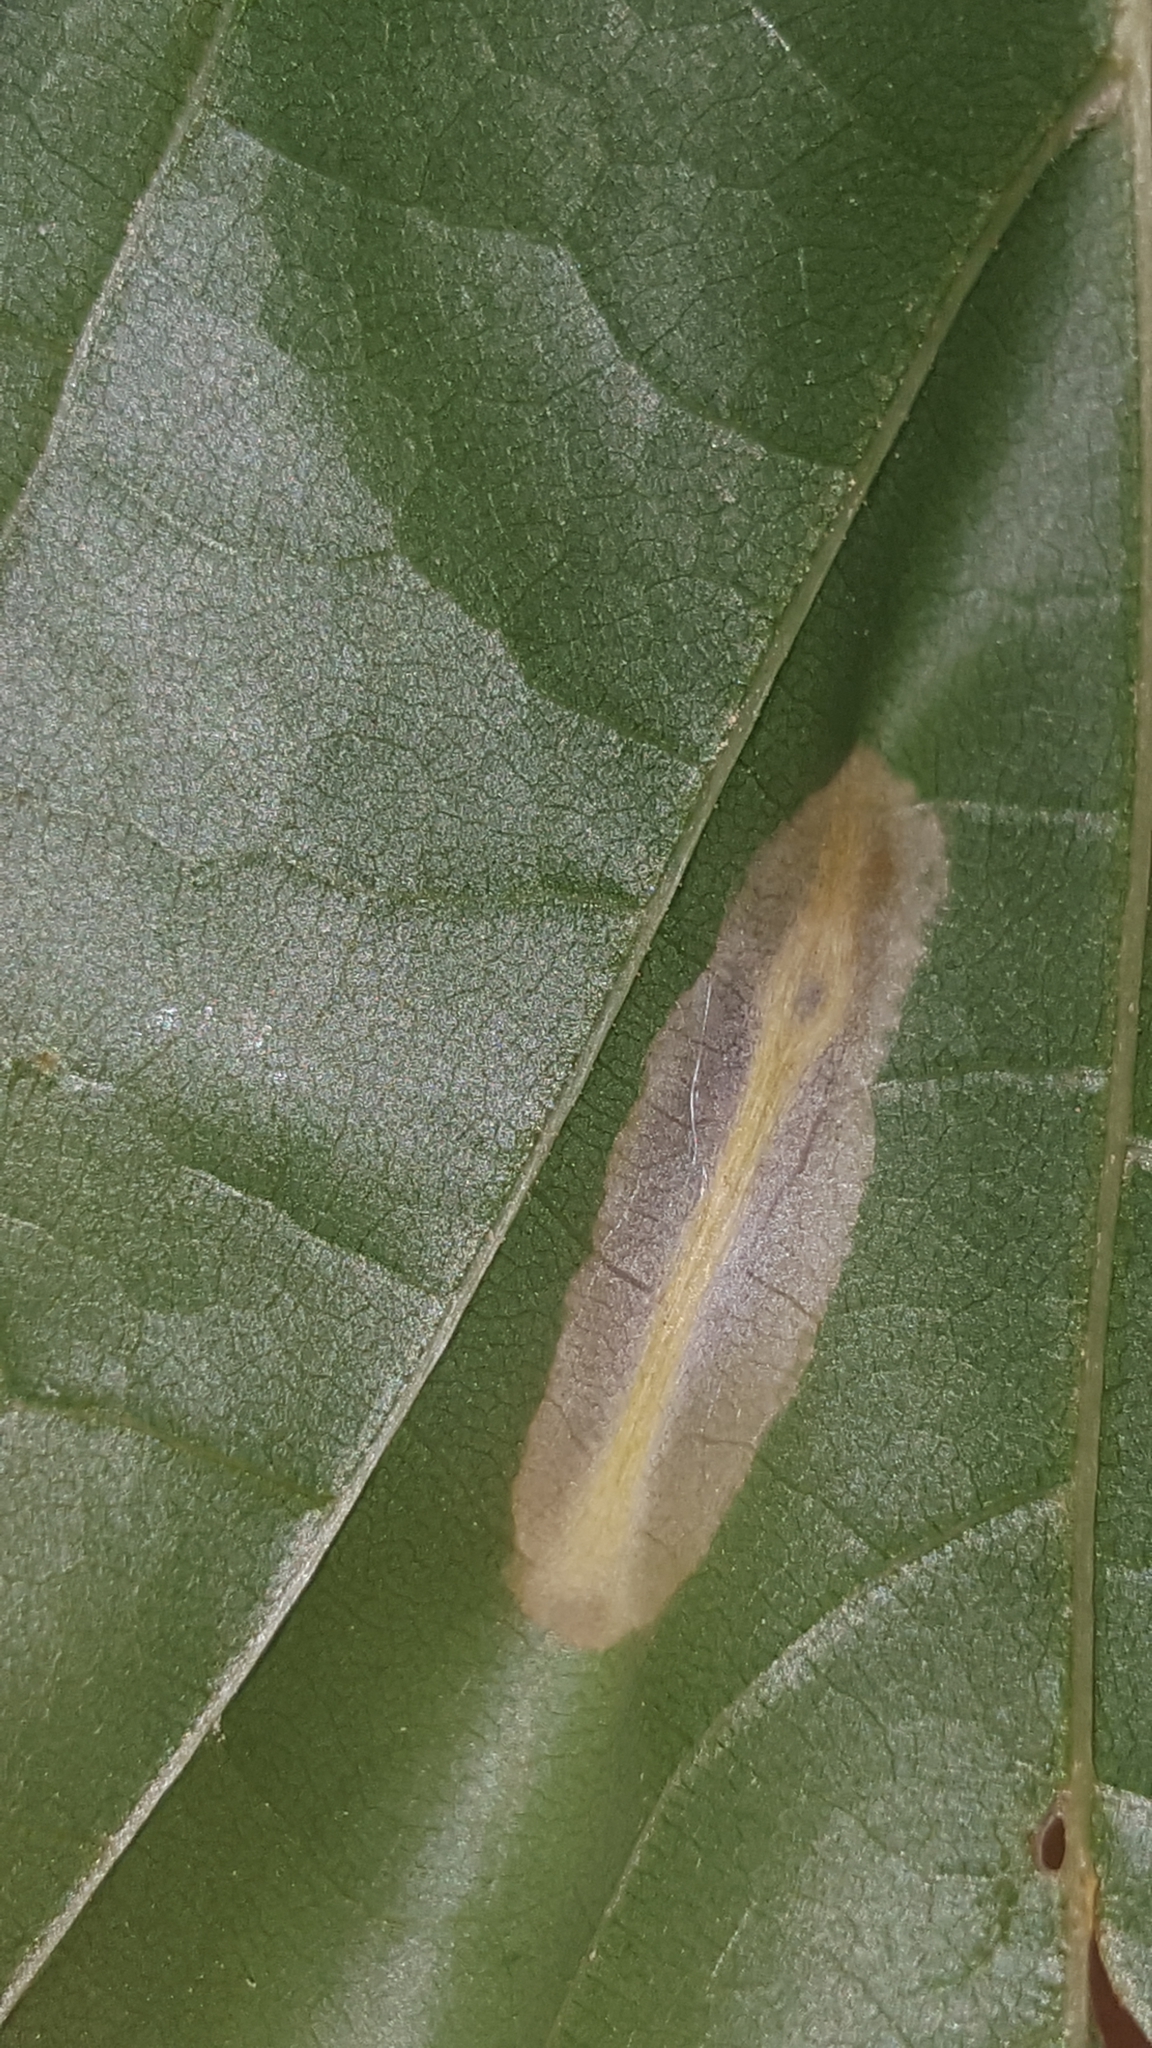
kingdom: Animalia
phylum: Arthropoda
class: Insecta
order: Lepidoptera
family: Gracillariidae
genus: Phyllonorycter
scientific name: Phyllonorycter joannisi
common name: White-bodied midget
